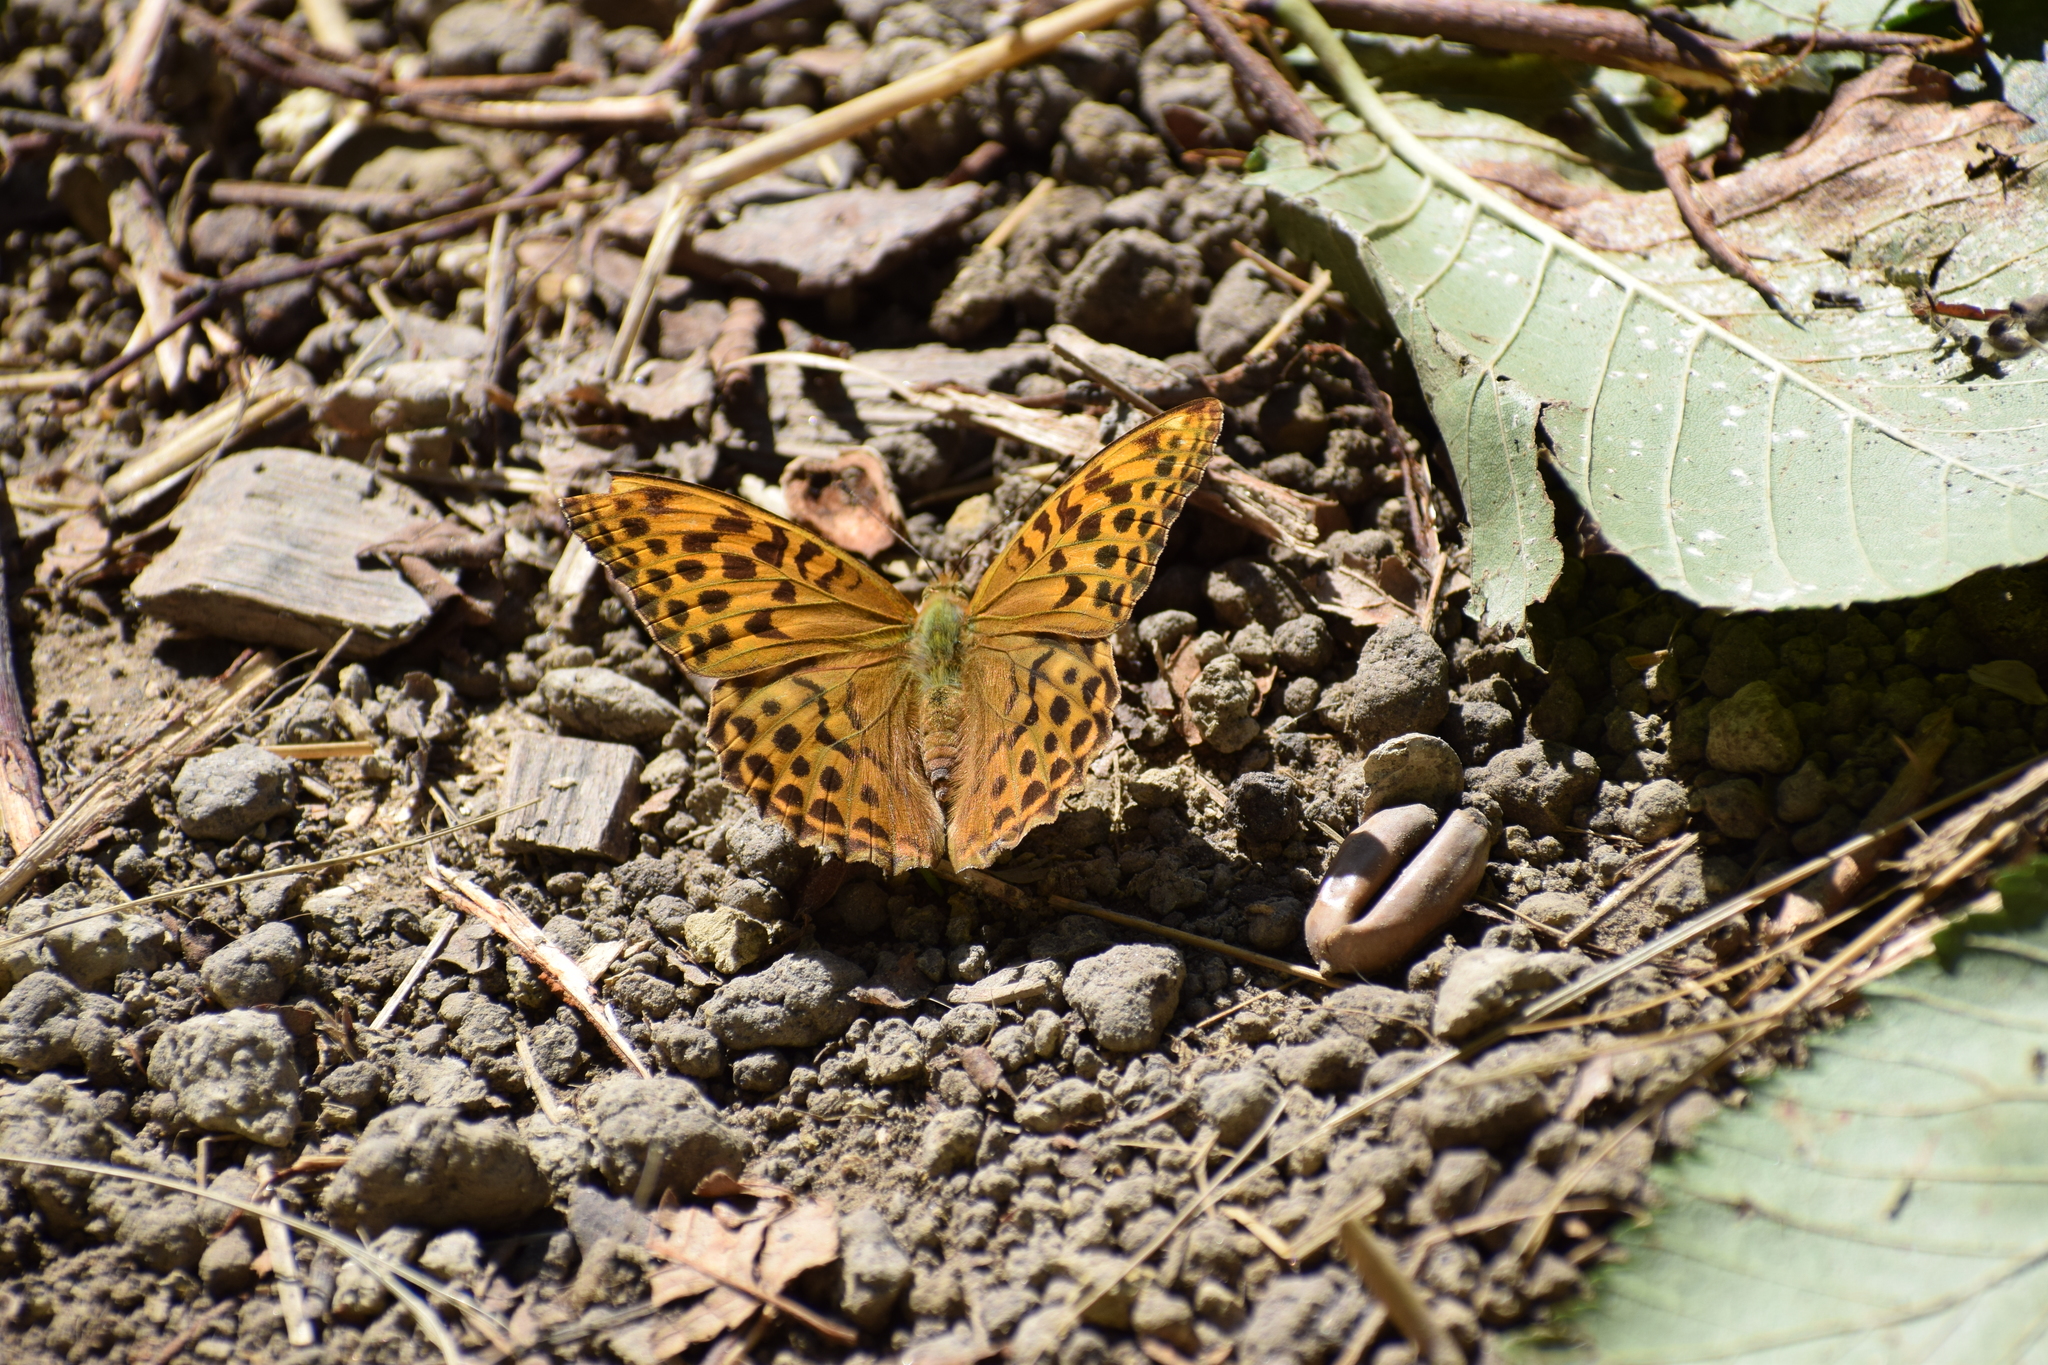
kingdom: Animalia
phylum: Arthropoda
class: Insecta
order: Lepidoptera
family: Nymphalidae
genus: Argynnis
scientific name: Argynnis paphia
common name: Silver-washed fritillary
